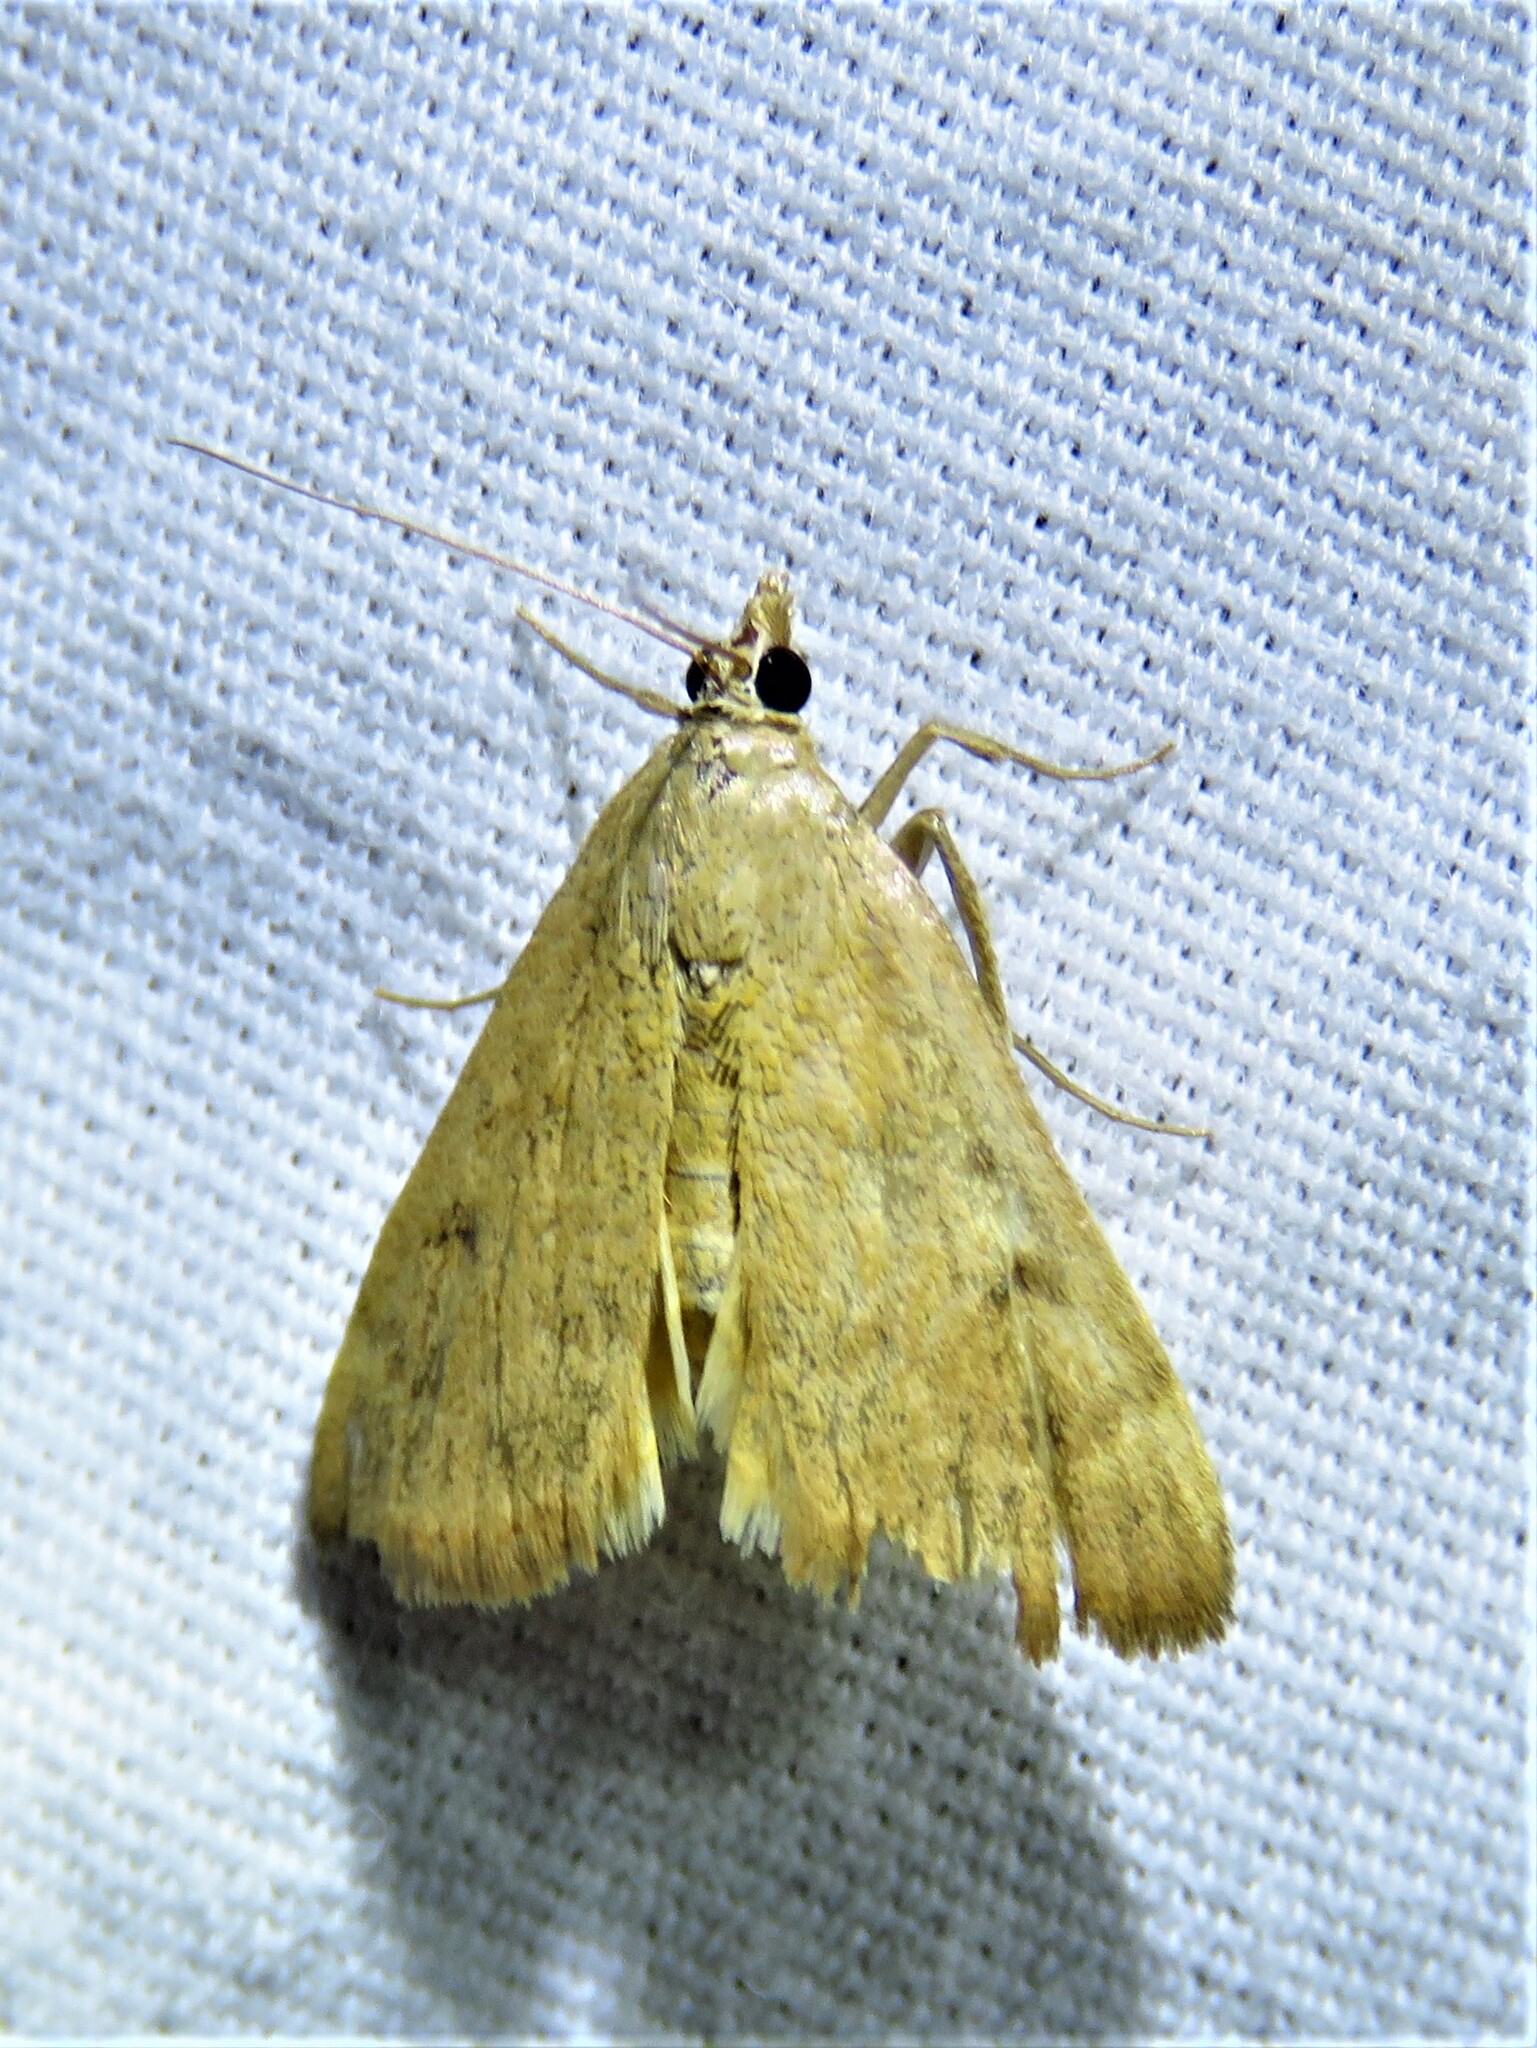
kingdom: Animalia
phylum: Arthropoda
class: Insecta
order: Lepidoptera
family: Crambidae
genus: Achyra
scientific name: Achyra rantalis
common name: Garden webworm
